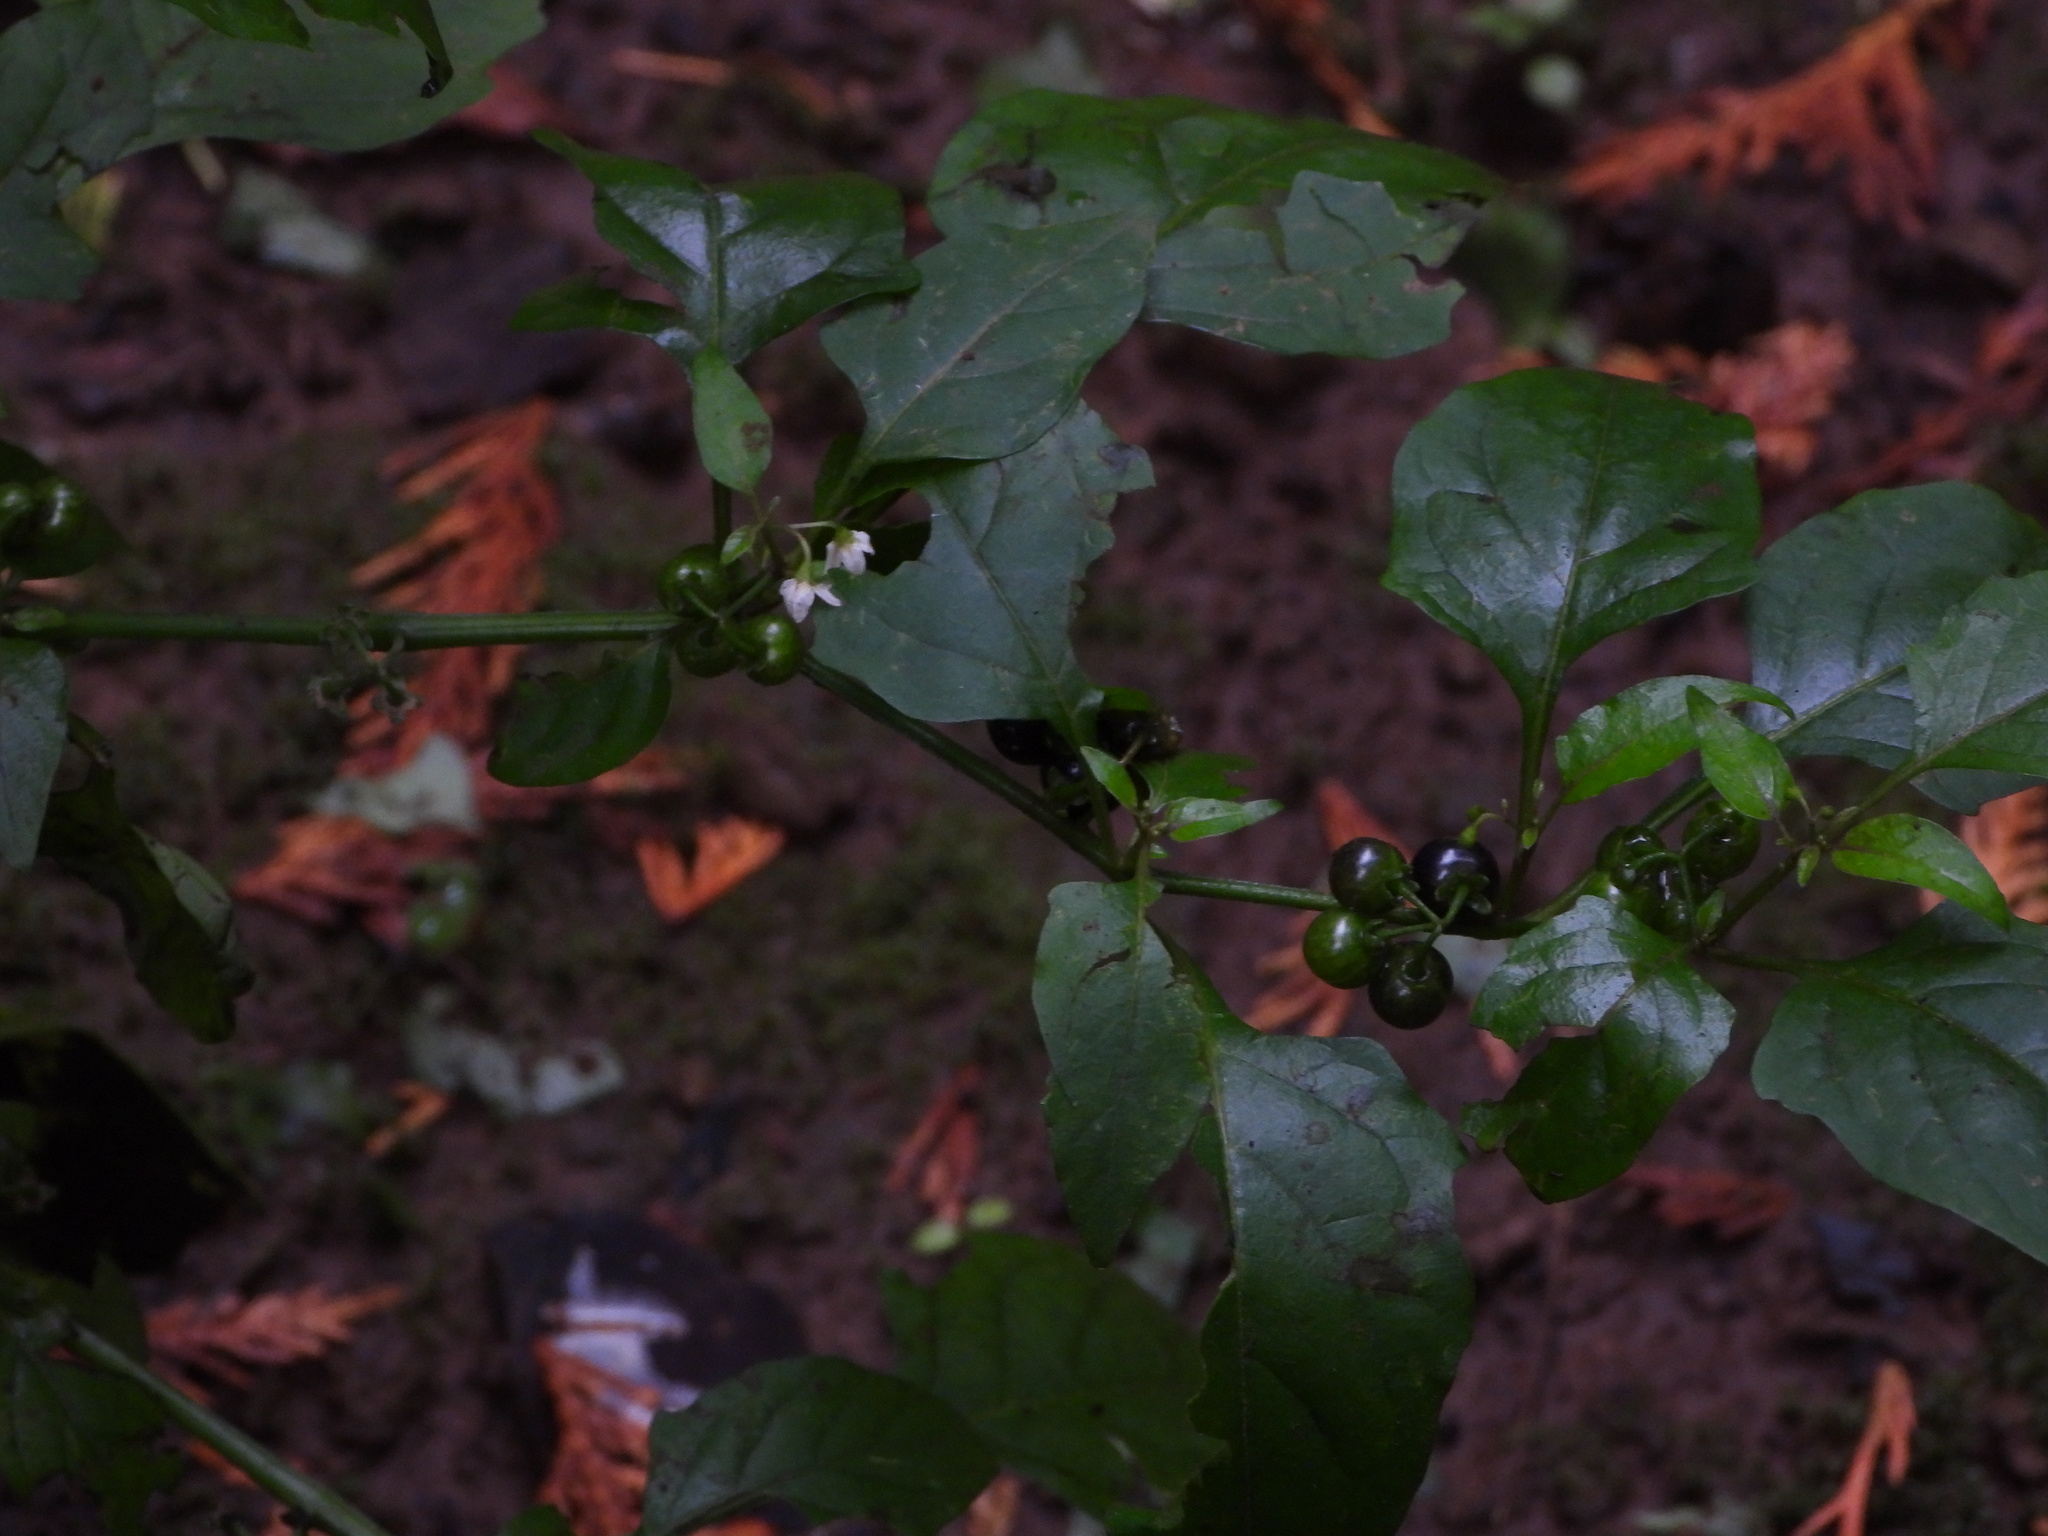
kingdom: Plantae
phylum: Tracheophyta
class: Magnoliopsida
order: Solanales
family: Solanaceae
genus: Solanum
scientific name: Solanum americanum
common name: American black nightshade
